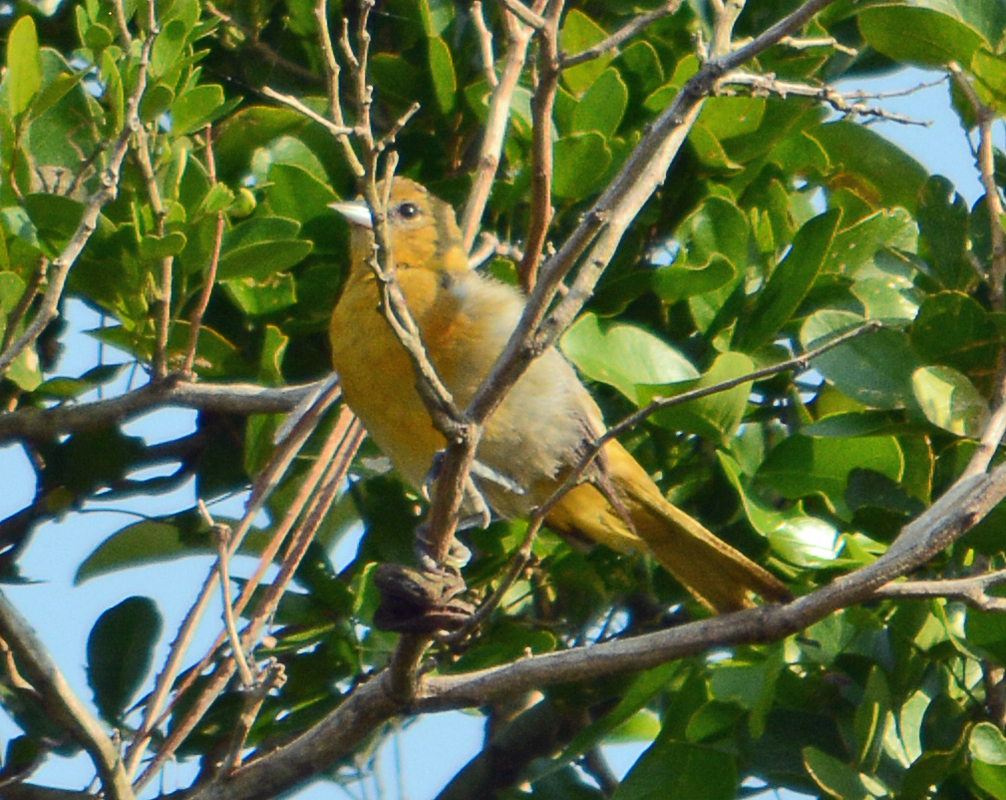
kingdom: Animalia
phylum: Chordata
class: Aves
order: Passeriformes
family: Icteridae
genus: Icterus
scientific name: Icterus galbula
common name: Baltimore oriole
